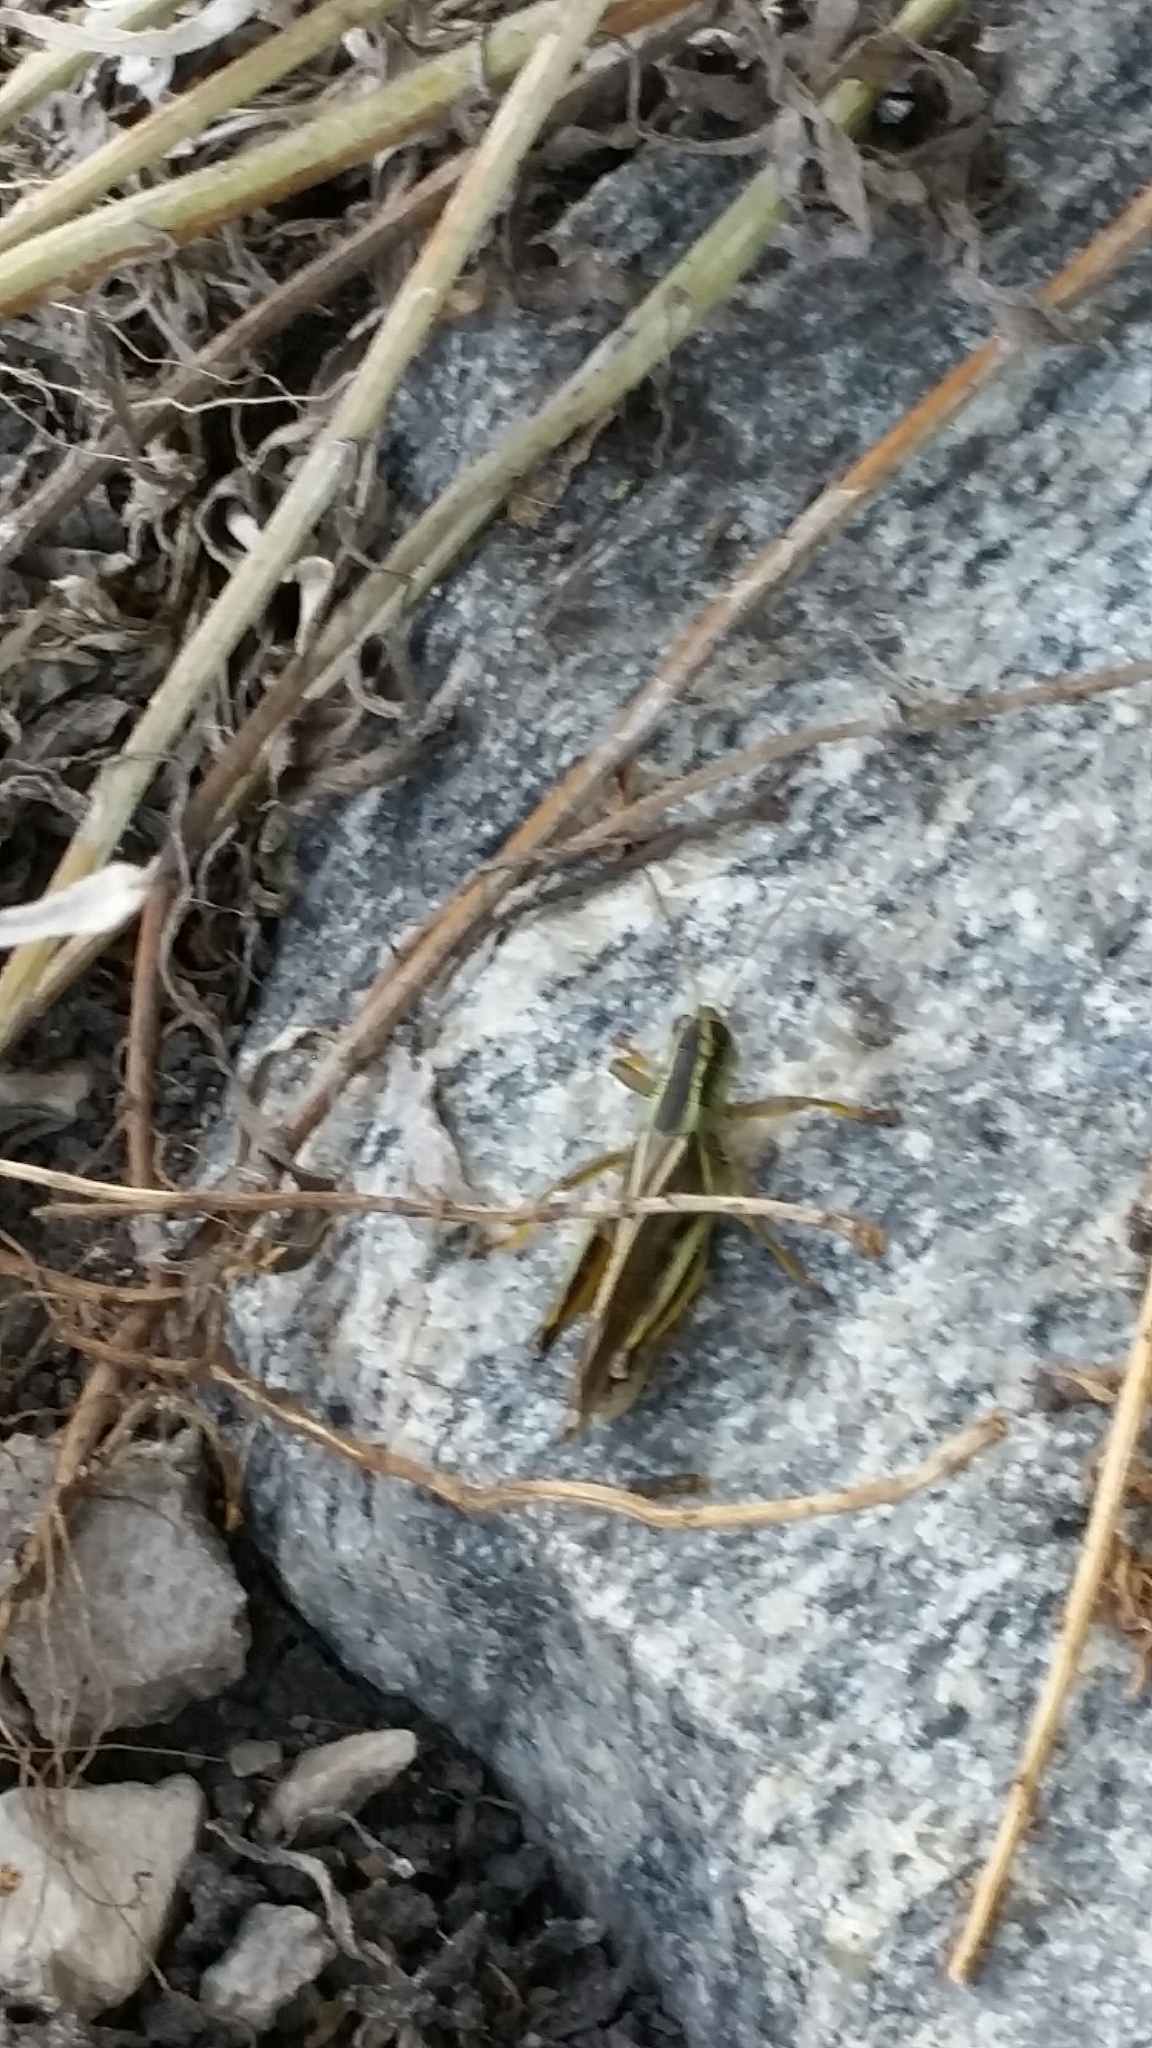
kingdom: Animalia
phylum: Arthropoda
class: Insecta
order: Orthoptera
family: Acrididae
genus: Melanoplus
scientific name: Melanoplus bivittatus
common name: Two-striped grasshopper
